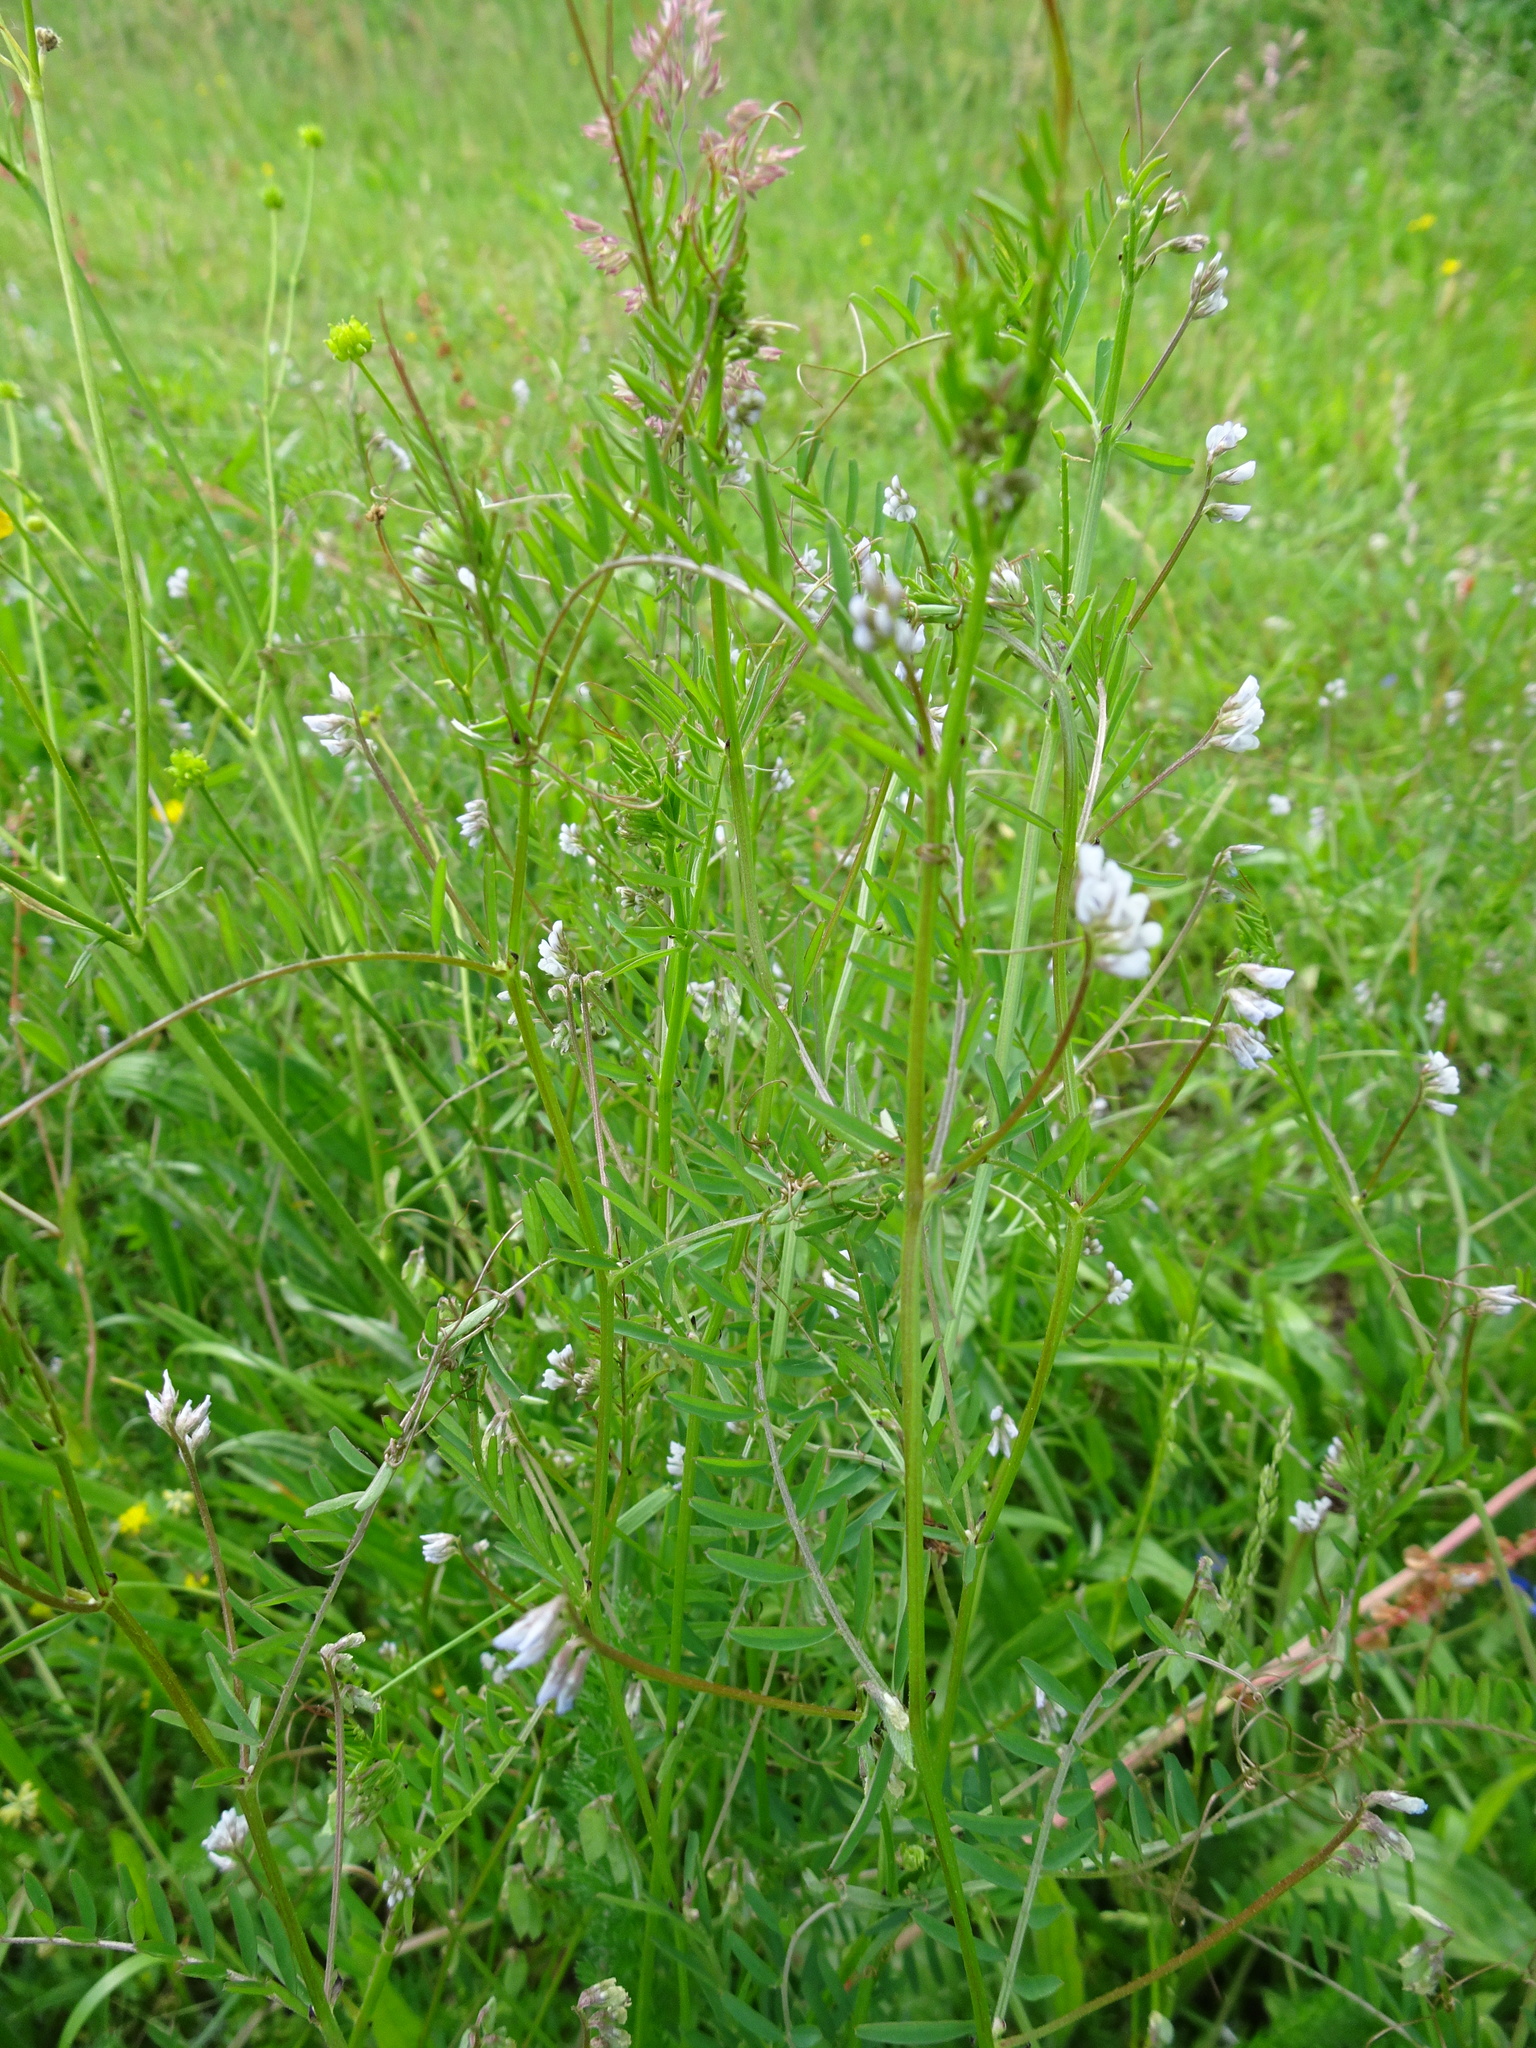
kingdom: Plantae
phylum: Tracheophyta
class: Magnoliopsida
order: Fabales
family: Fabaceae
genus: Vicia
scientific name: Vicia hirsuta
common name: Tiny vetch
